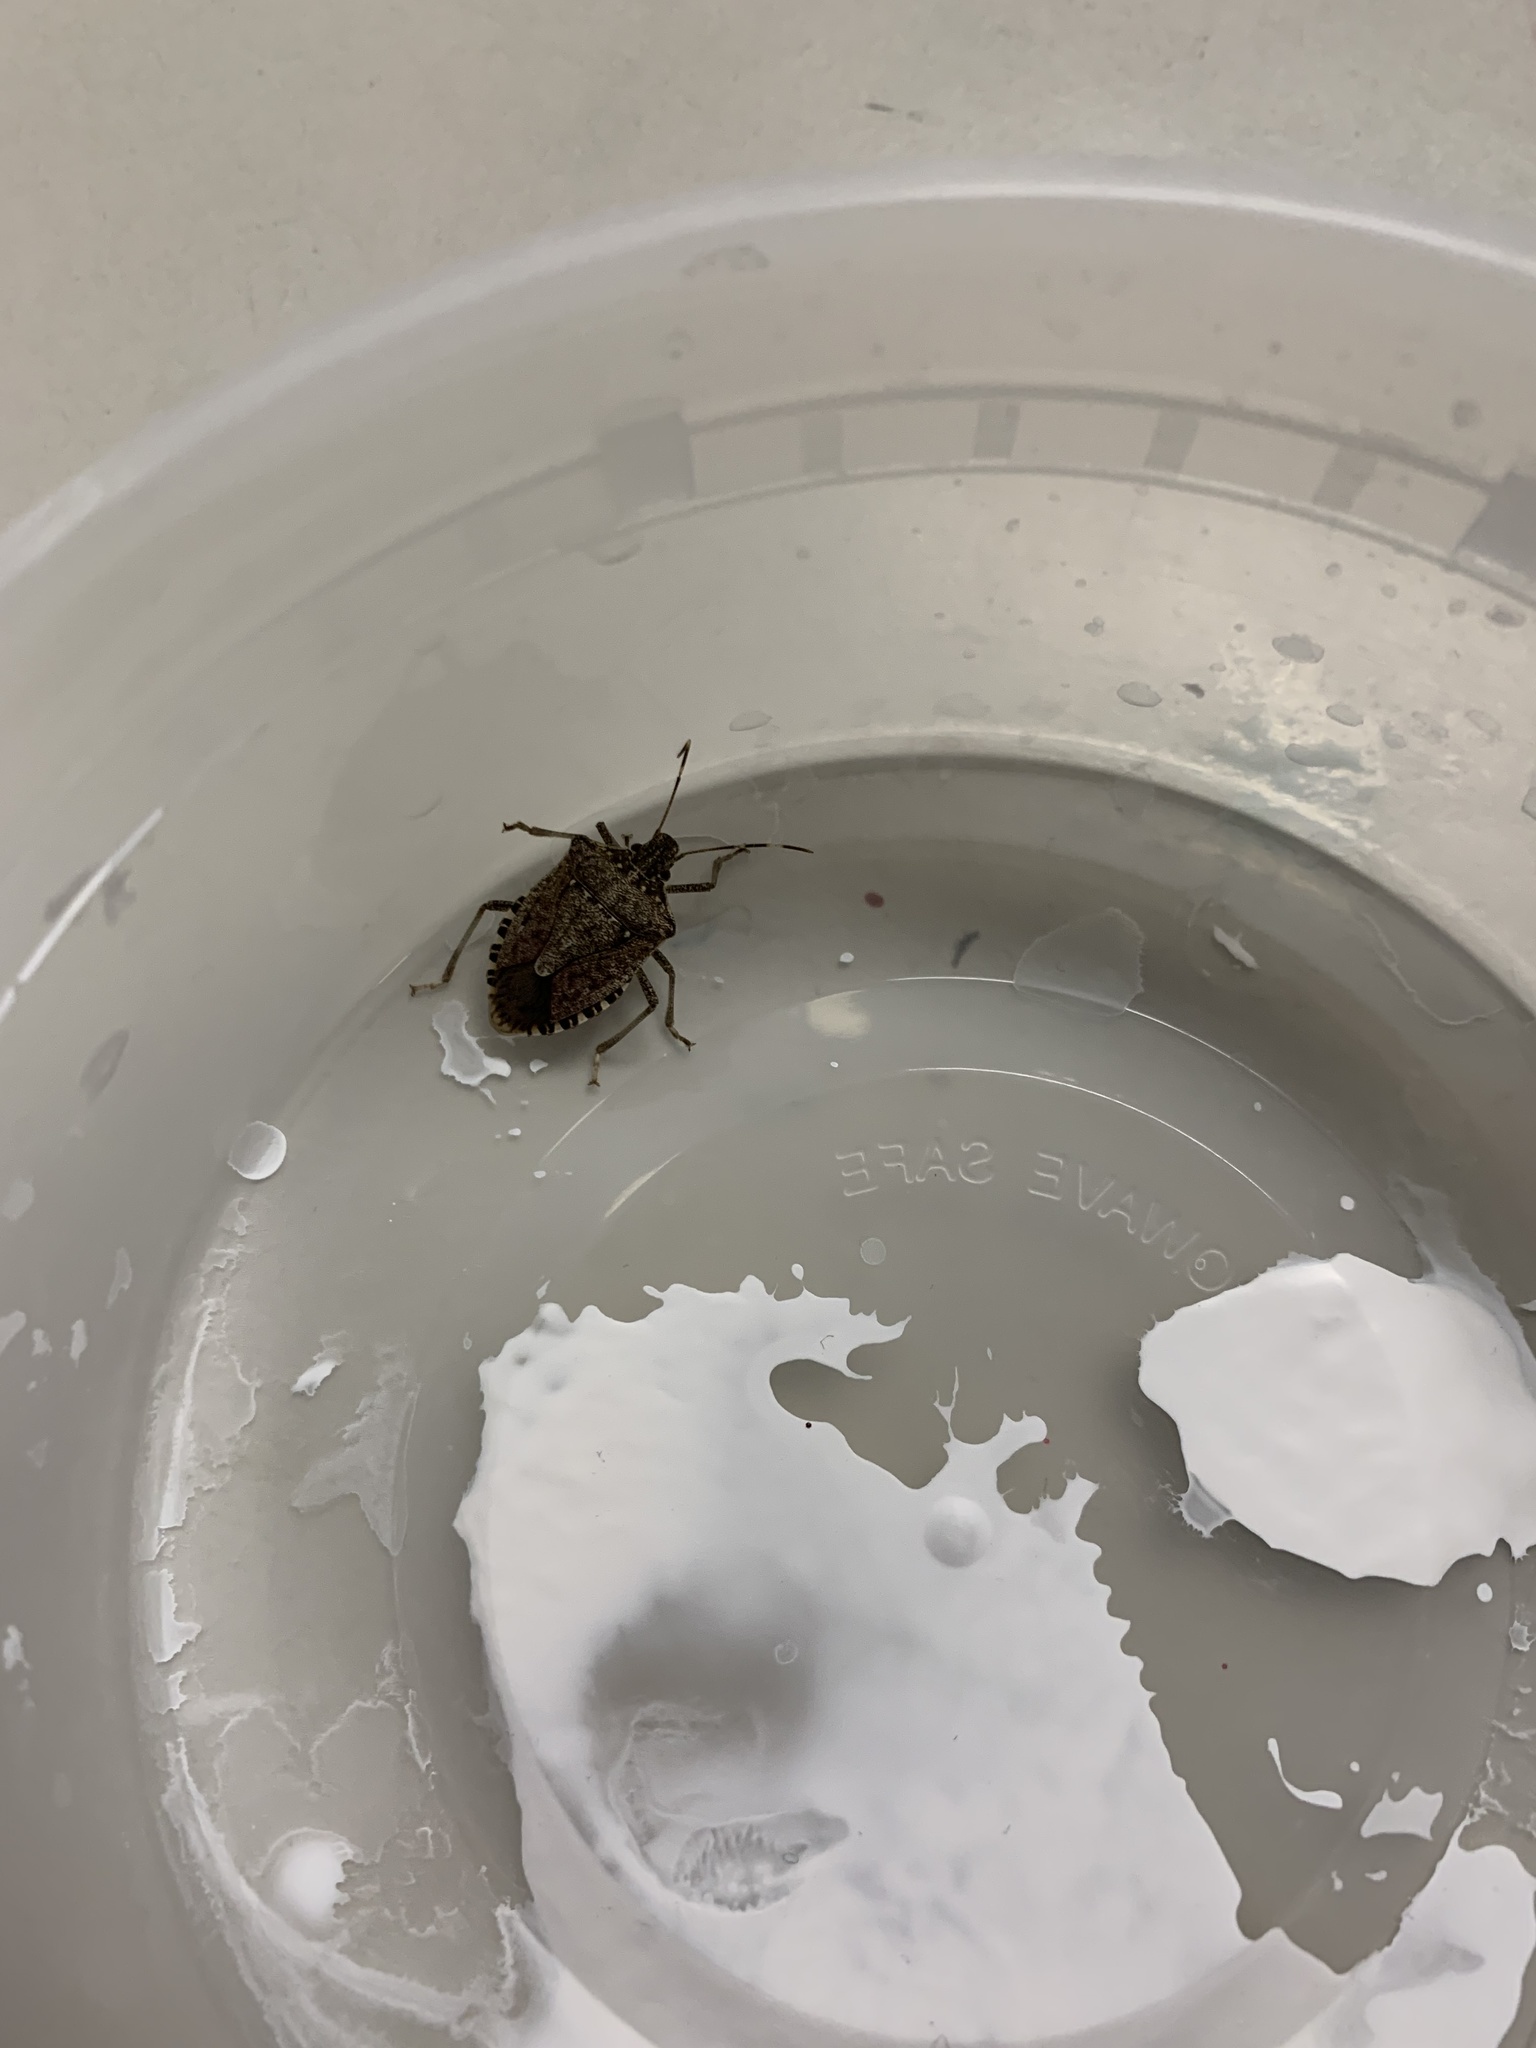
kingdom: Animalia
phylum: Arthropoda
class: Insecta
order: Hemiptera
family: Pentatomidae
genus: Halyomorpha
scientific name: Halyomorpha halys
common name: Brown marmorated stink bug
